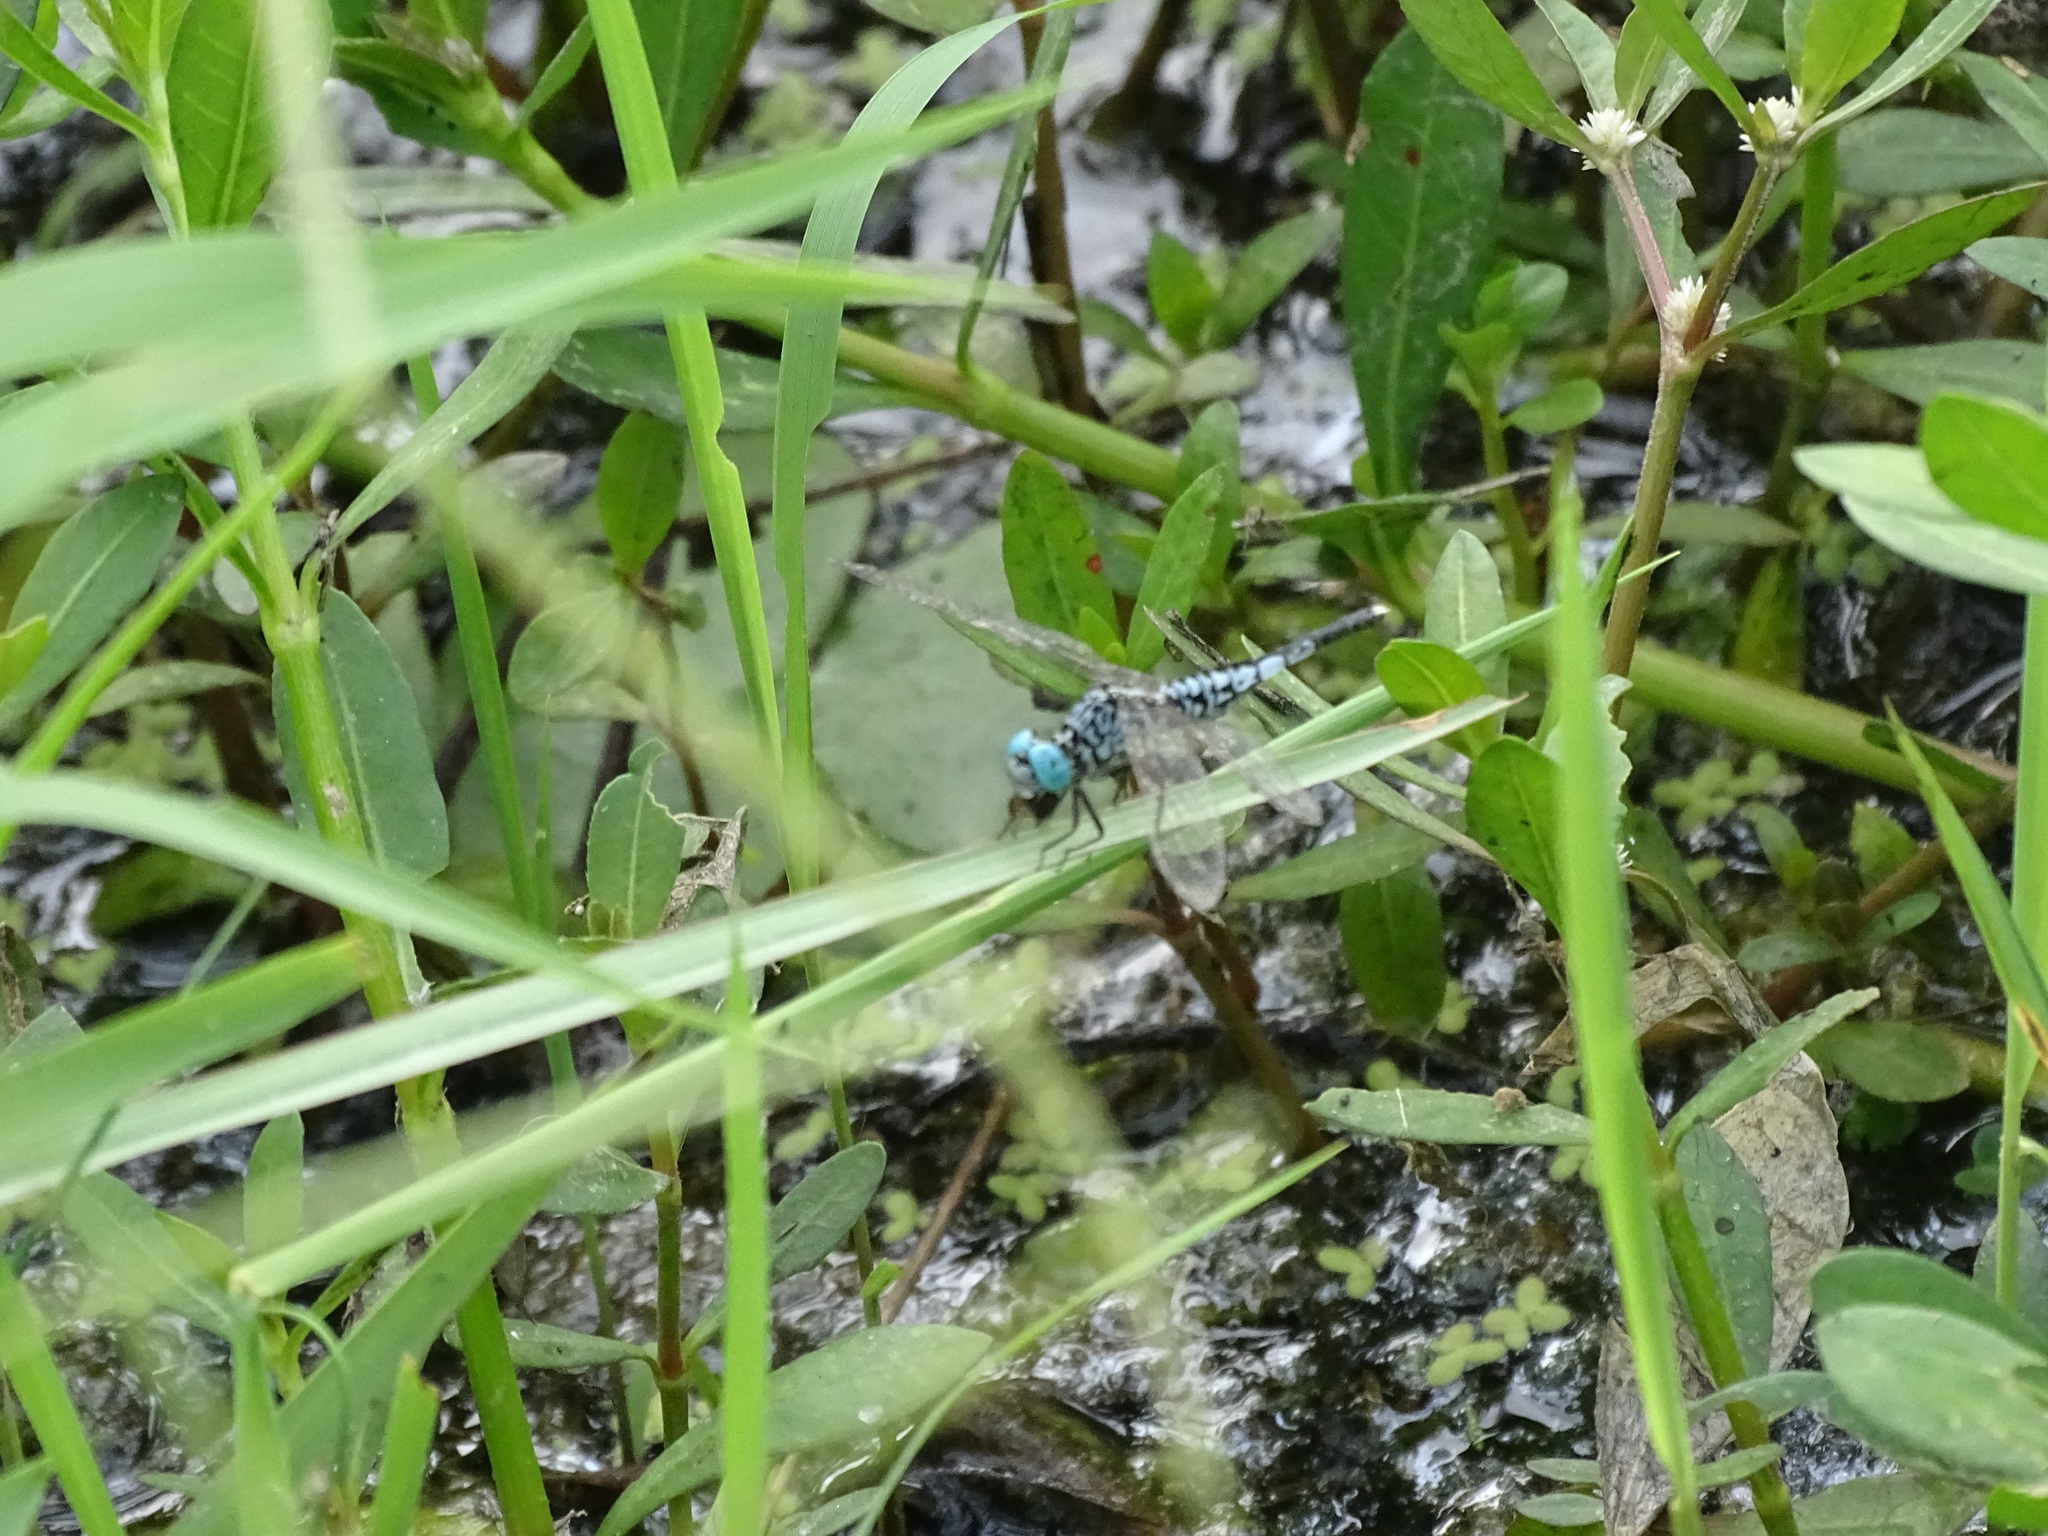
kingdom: Animalia
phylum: Arthropoda
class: Insecta
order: Odonata
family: Libellulidae
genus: Acisoma
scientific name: Acisoma panorpoides
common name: Asian pintail
